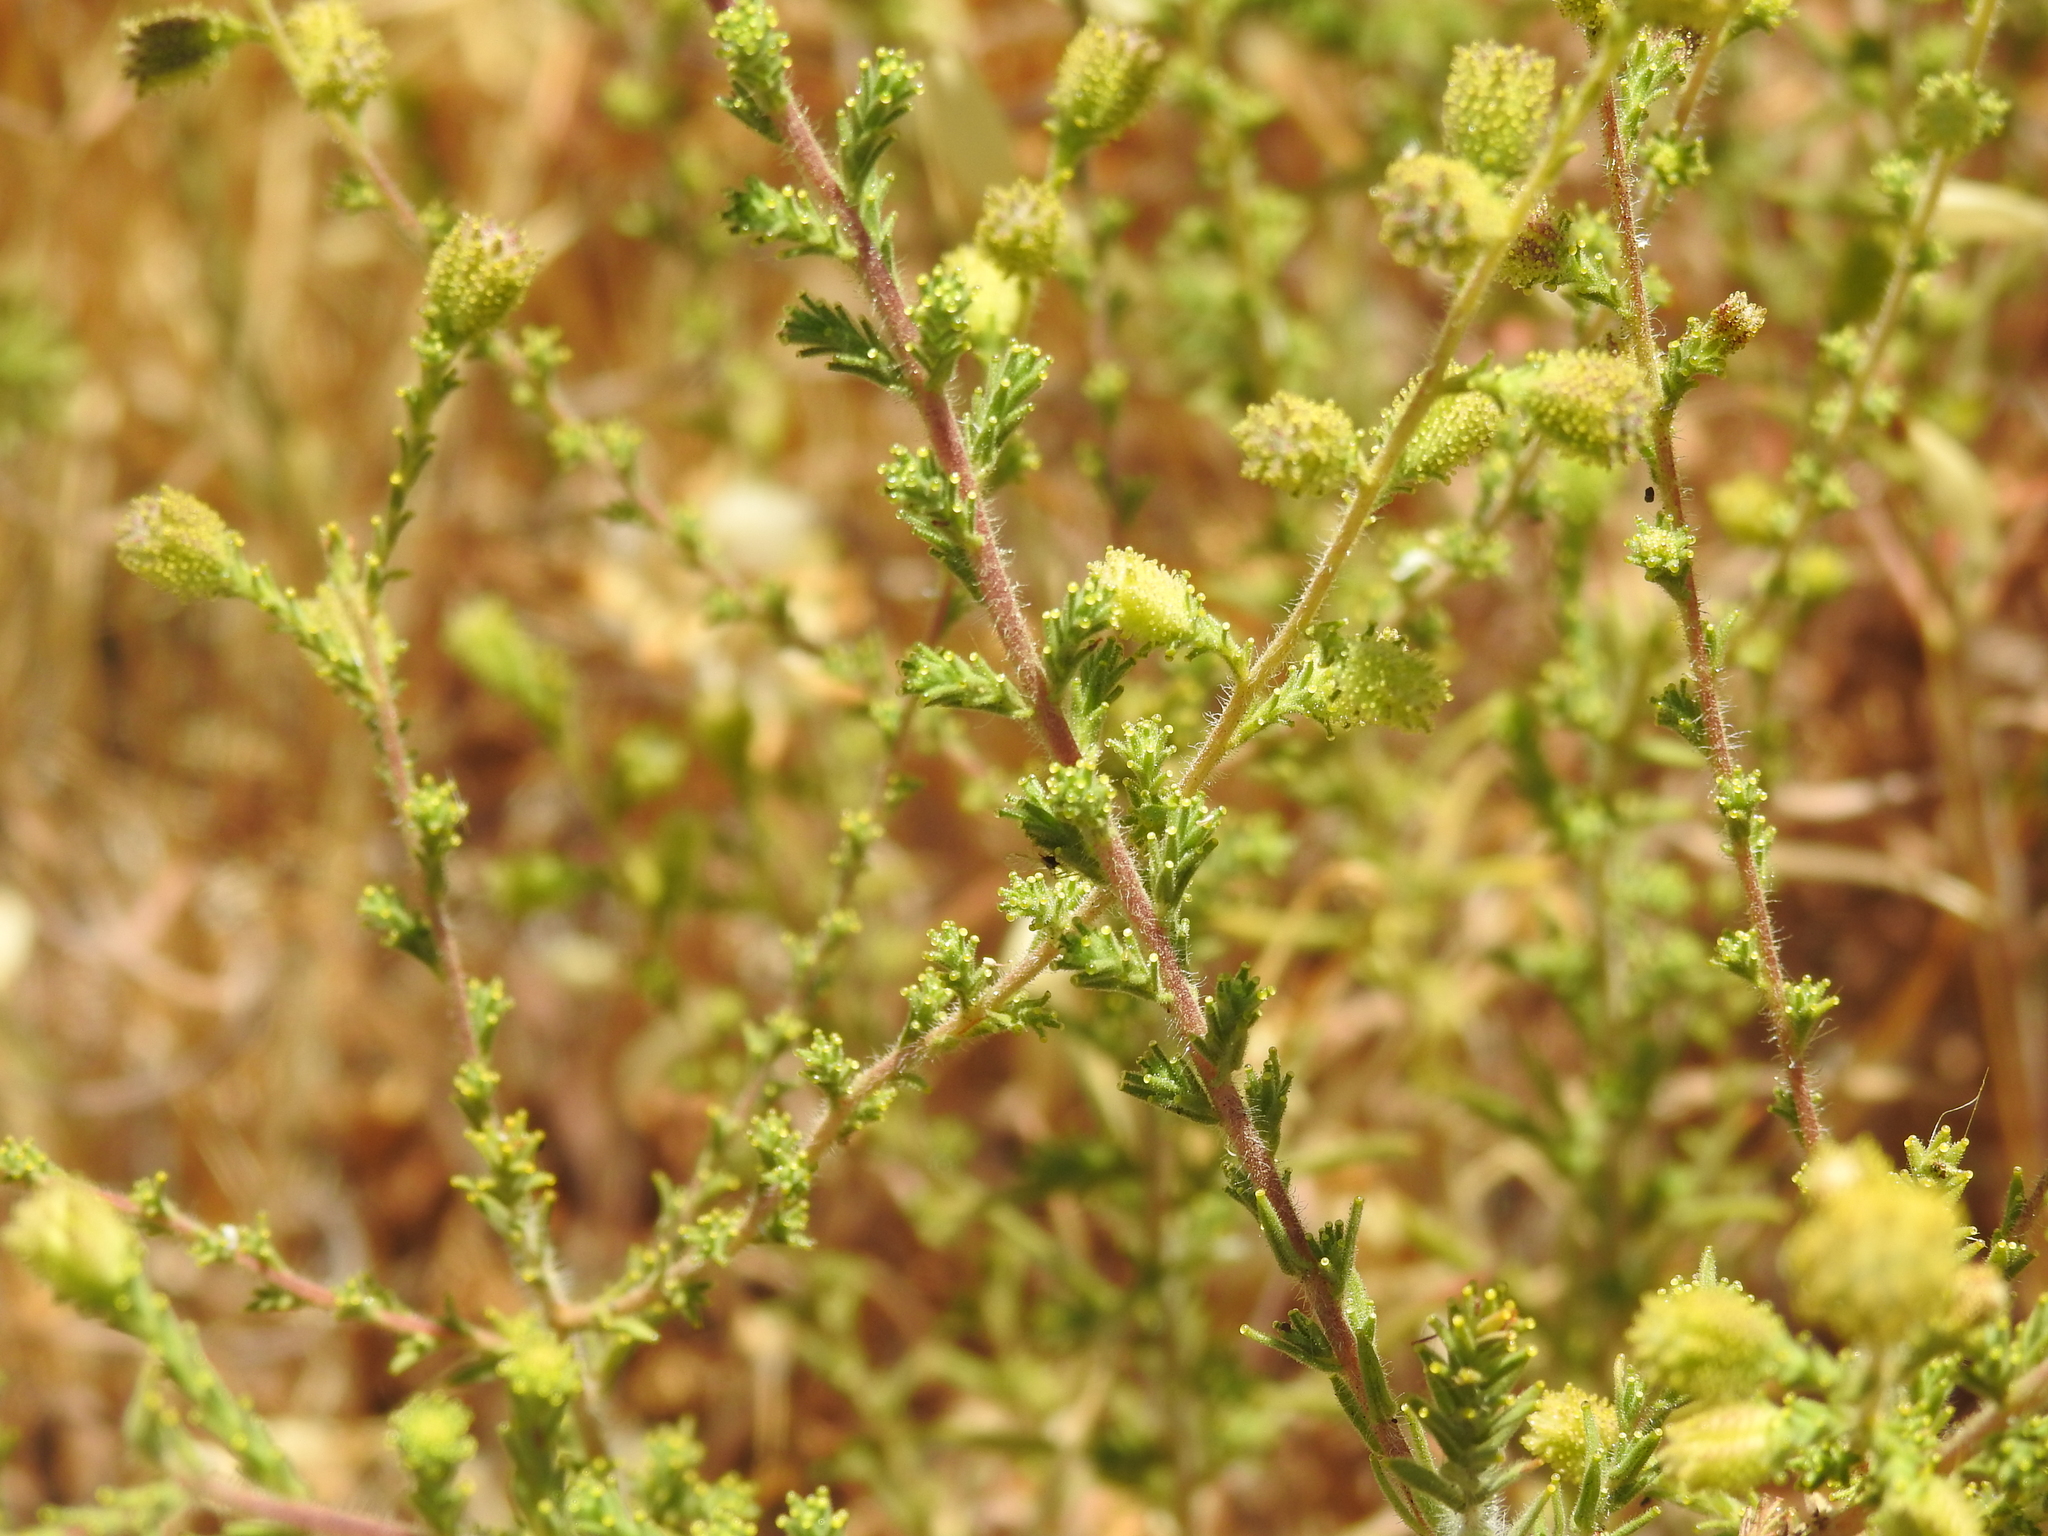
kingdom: Plantae
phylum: Tracheophyta
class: Magnoliopsida
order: Asterales
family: Asteraceae
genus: Holocarpha
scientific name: Holocarpha heermannii
